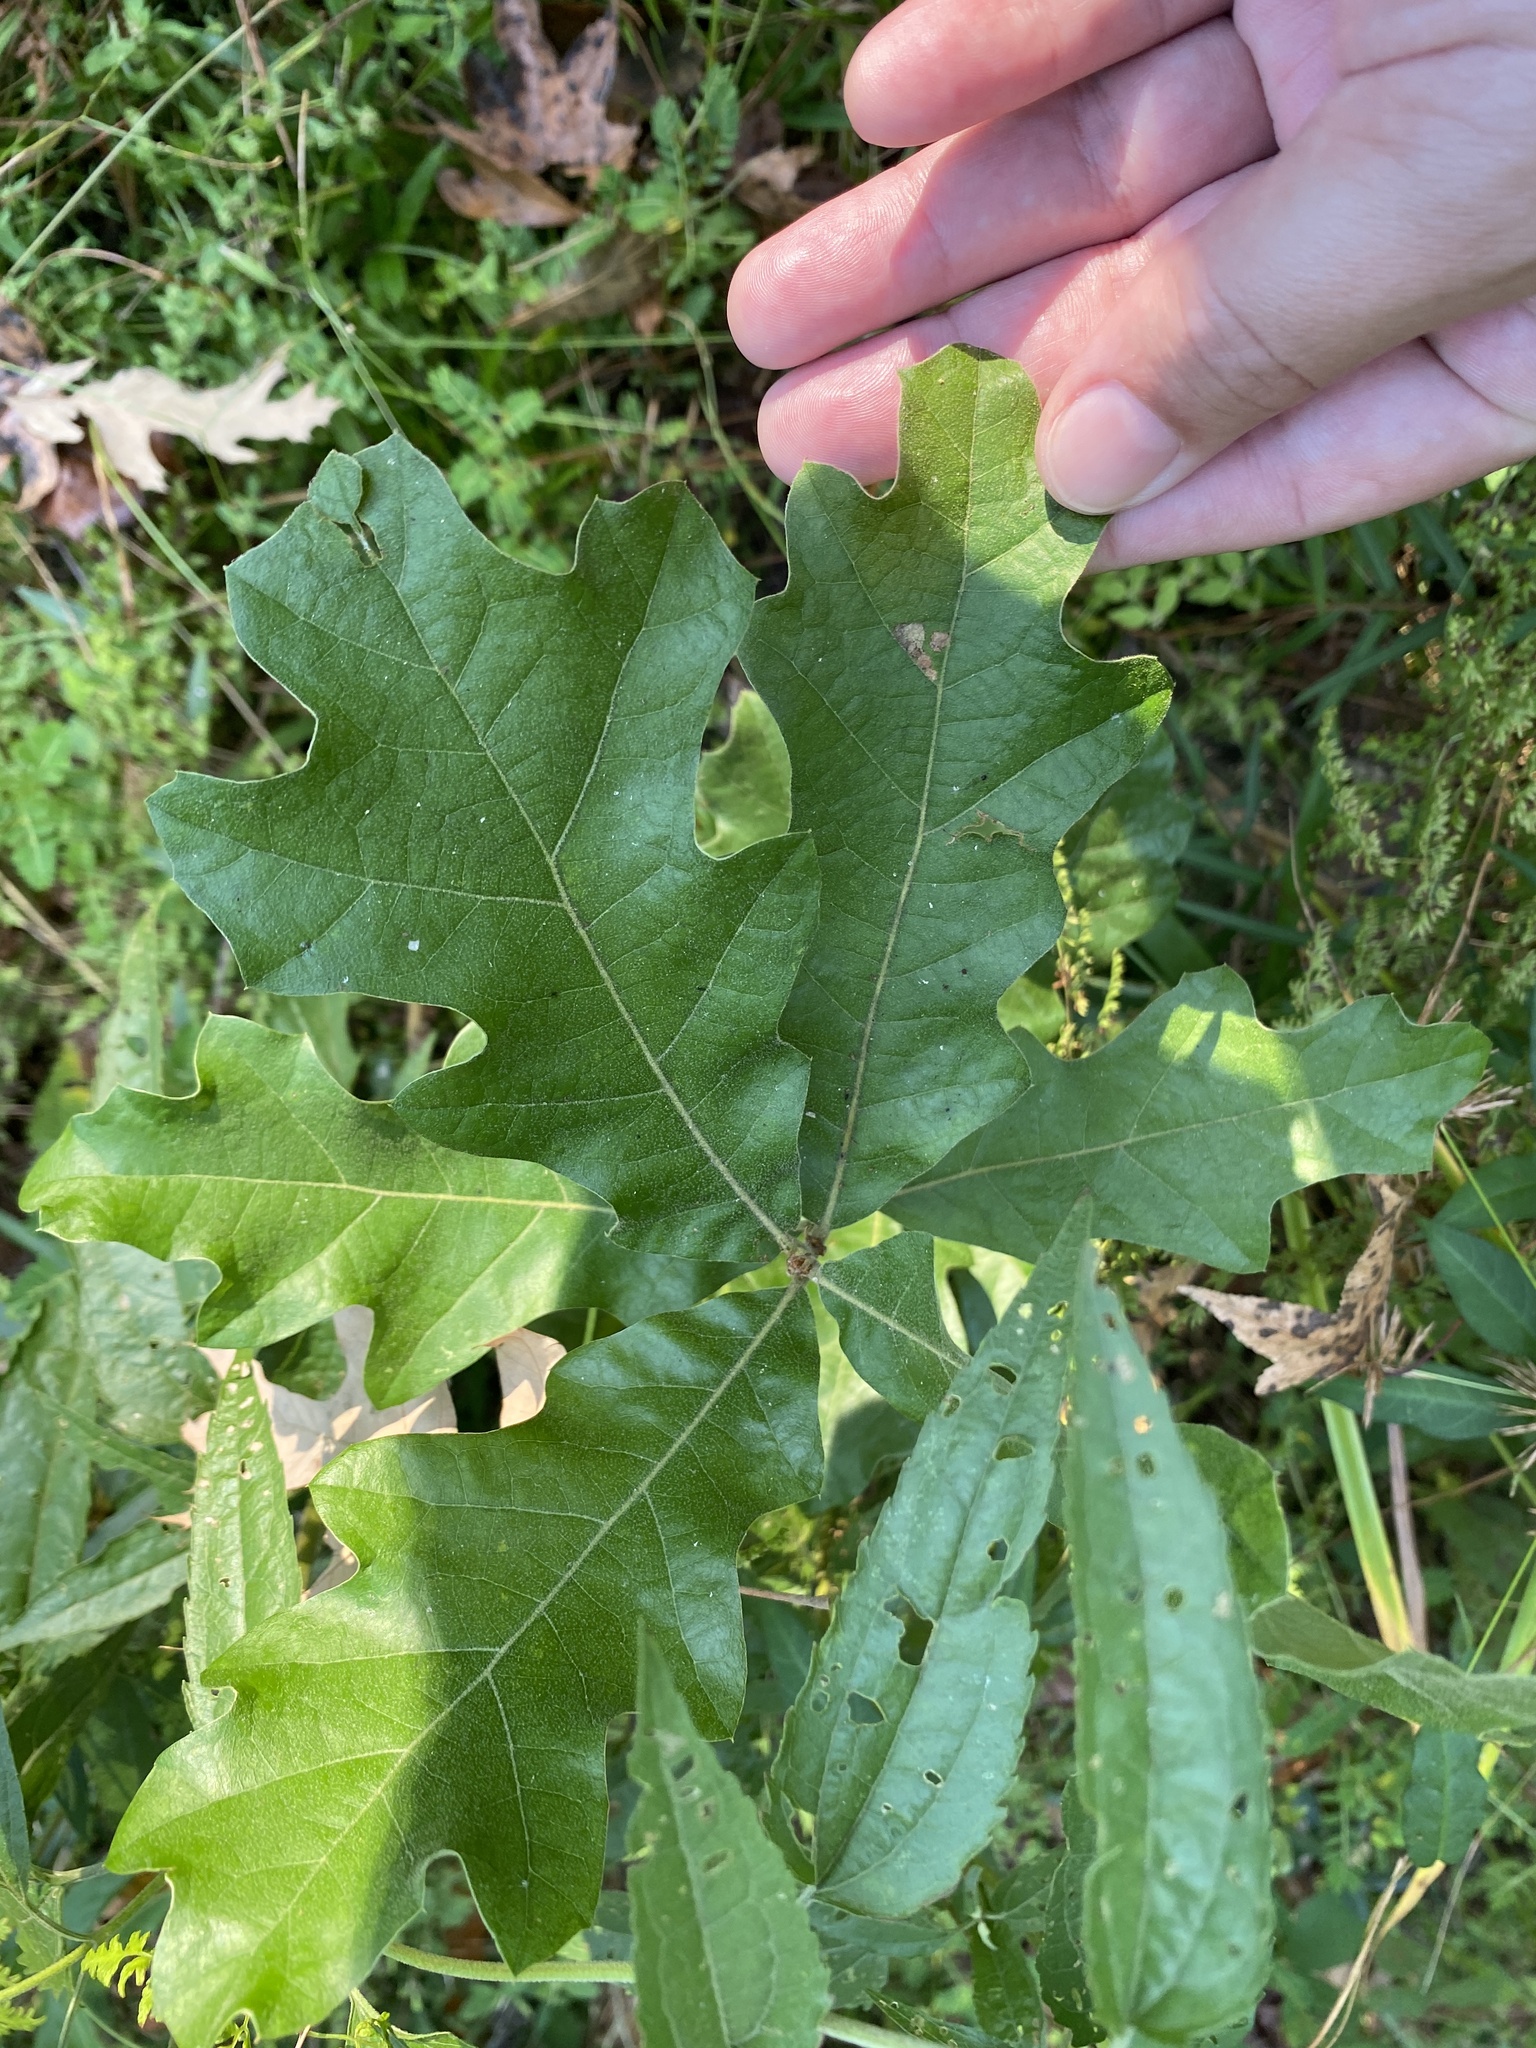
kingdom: Plantae
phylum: Tracheophyta
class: Magnoliopsida
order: Fagales
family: Fagaceae
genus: Quercus
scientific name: Quercus stellata
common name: Post oak
